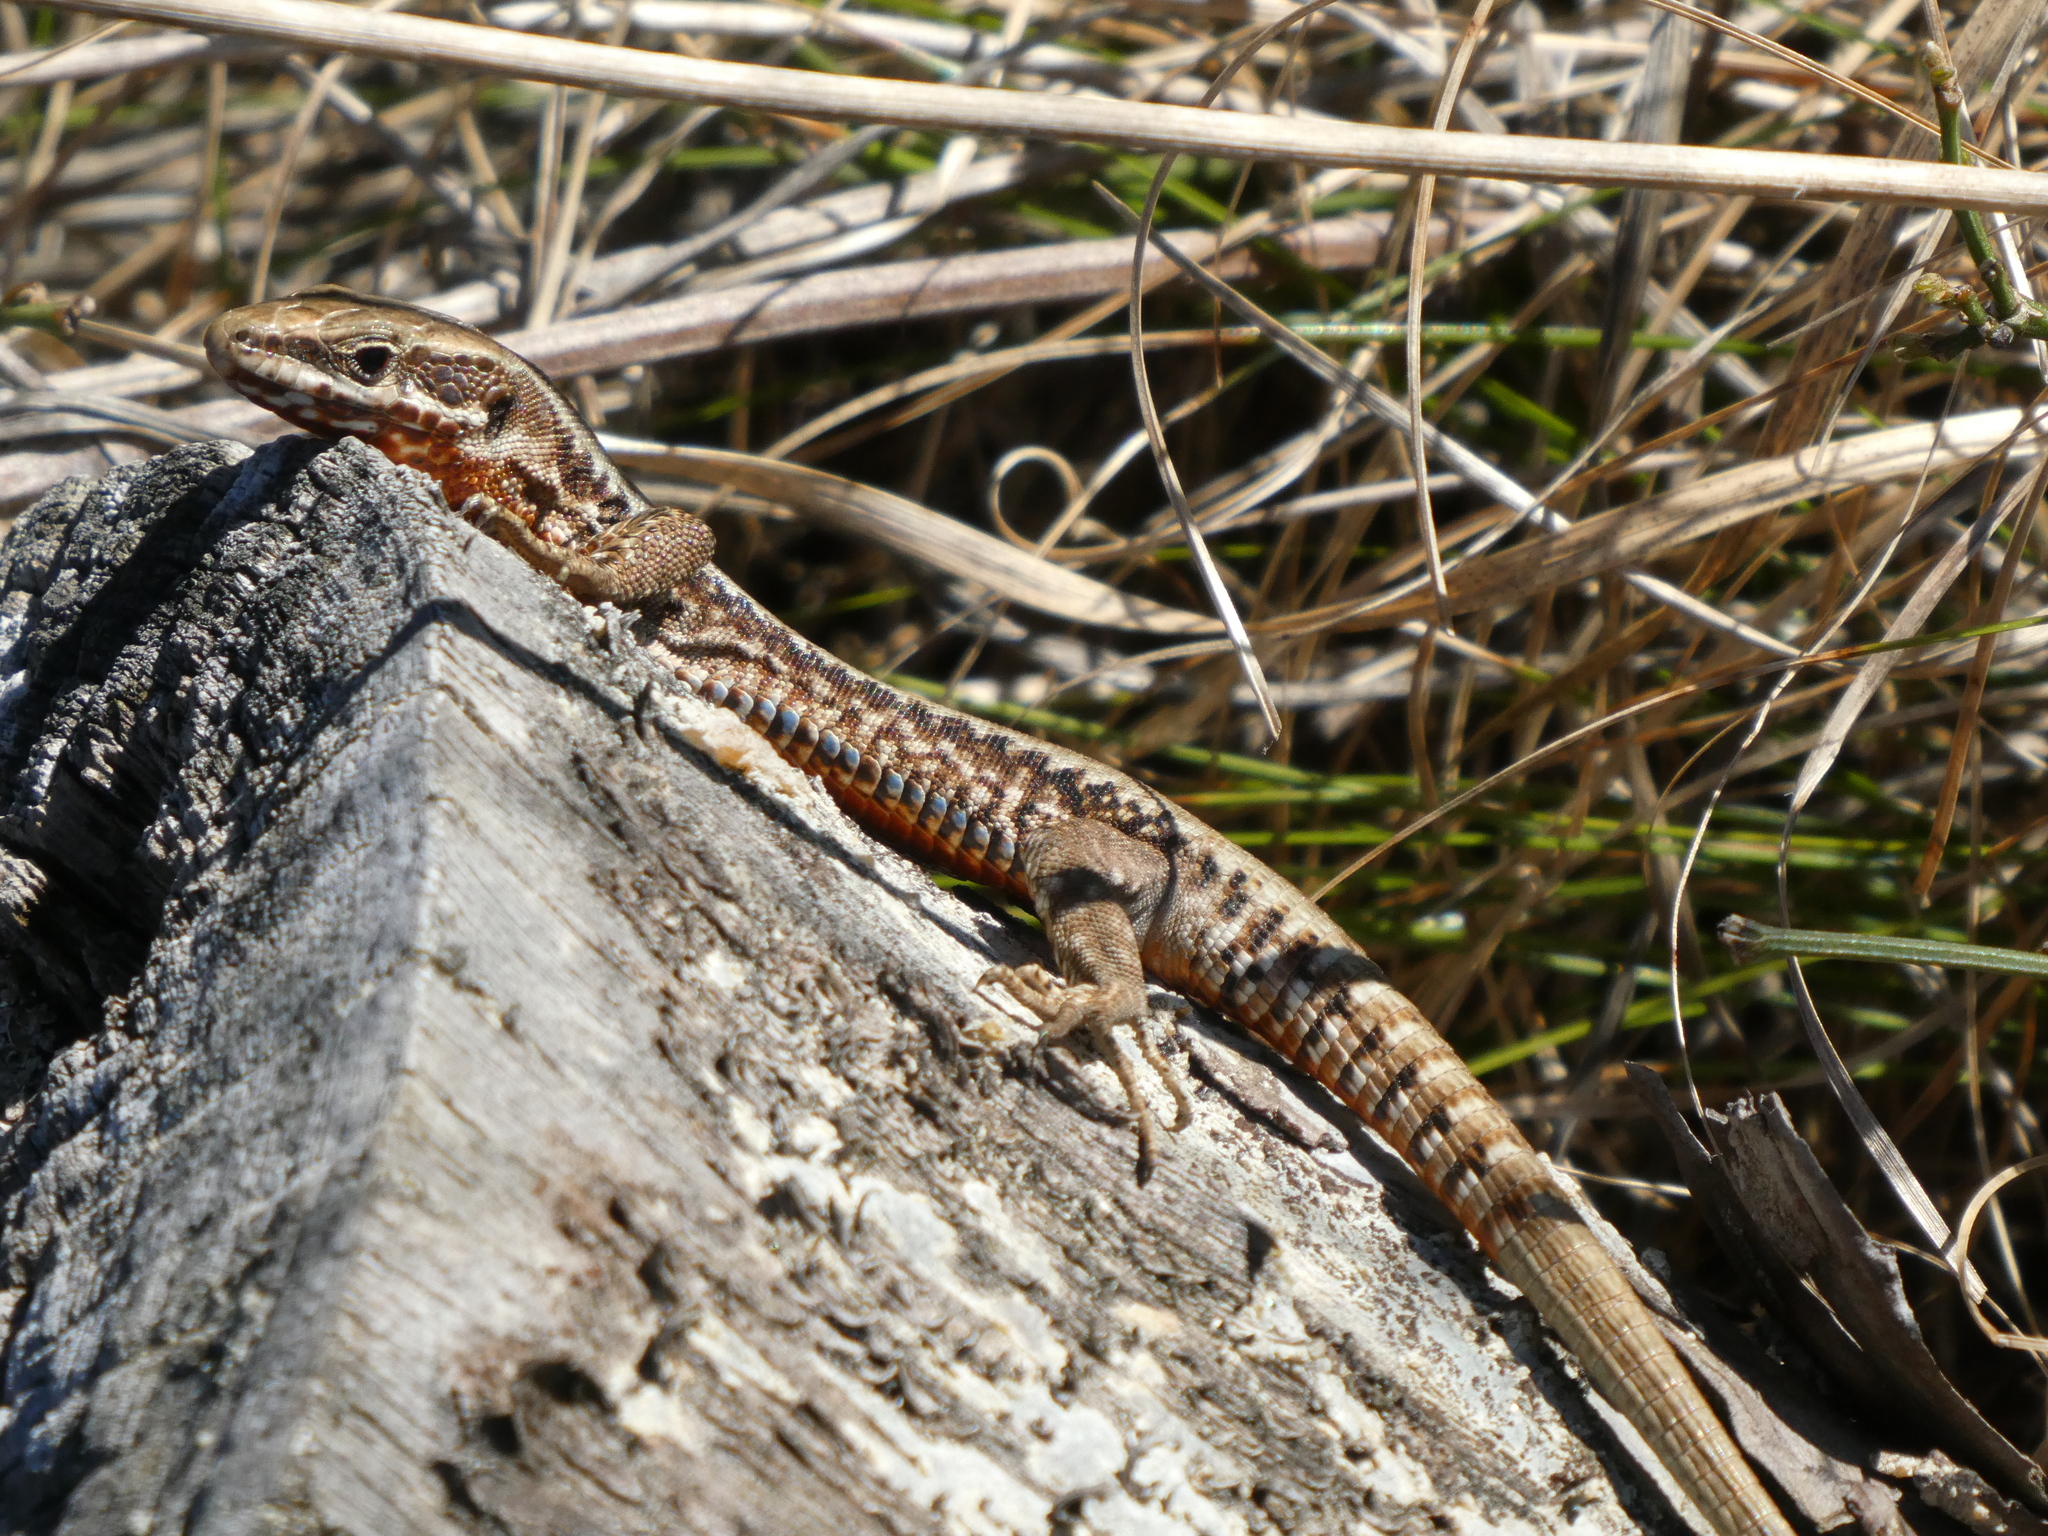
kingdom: Animalia
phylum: Chordata
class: Squamata
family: Lacertidae
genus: Podarcis
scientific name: Podarcis muralis
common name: Common wall lizard
